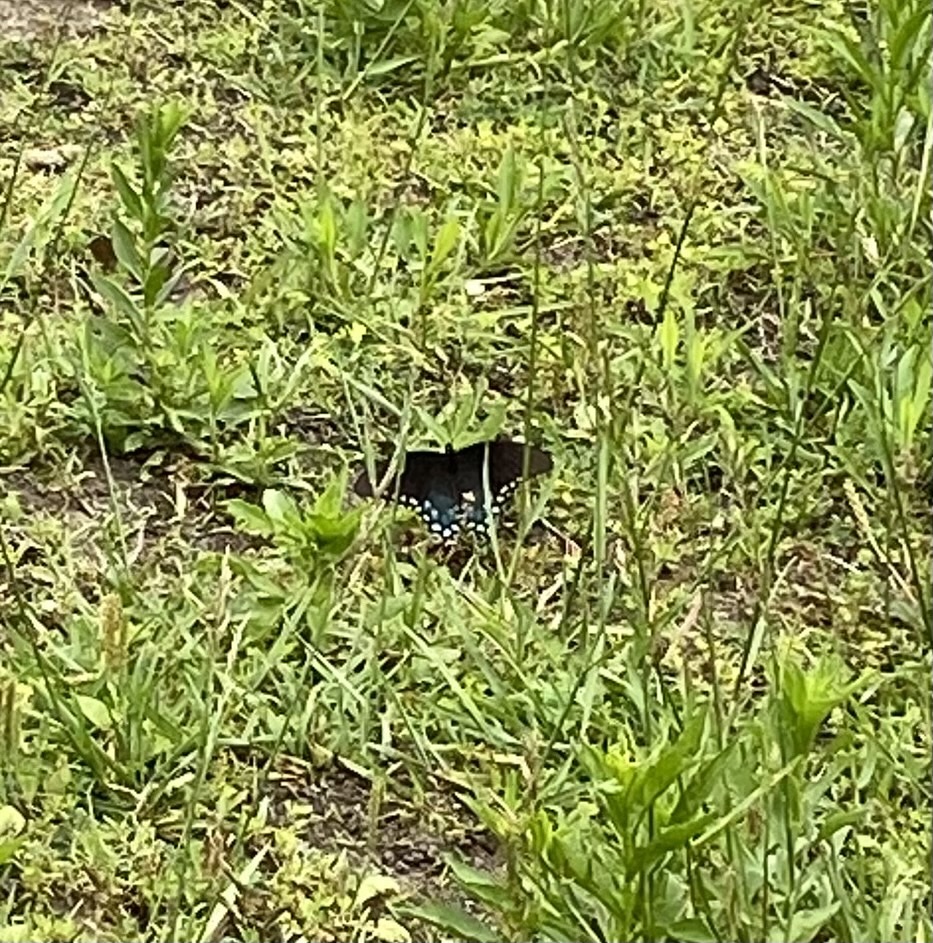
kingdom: Animalia
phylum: Arthropoda
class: Insecta
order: Lepidoptera
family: Papilionidae
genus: Papilio
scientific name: Papilio troilus
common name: Spicebush swallowtail
